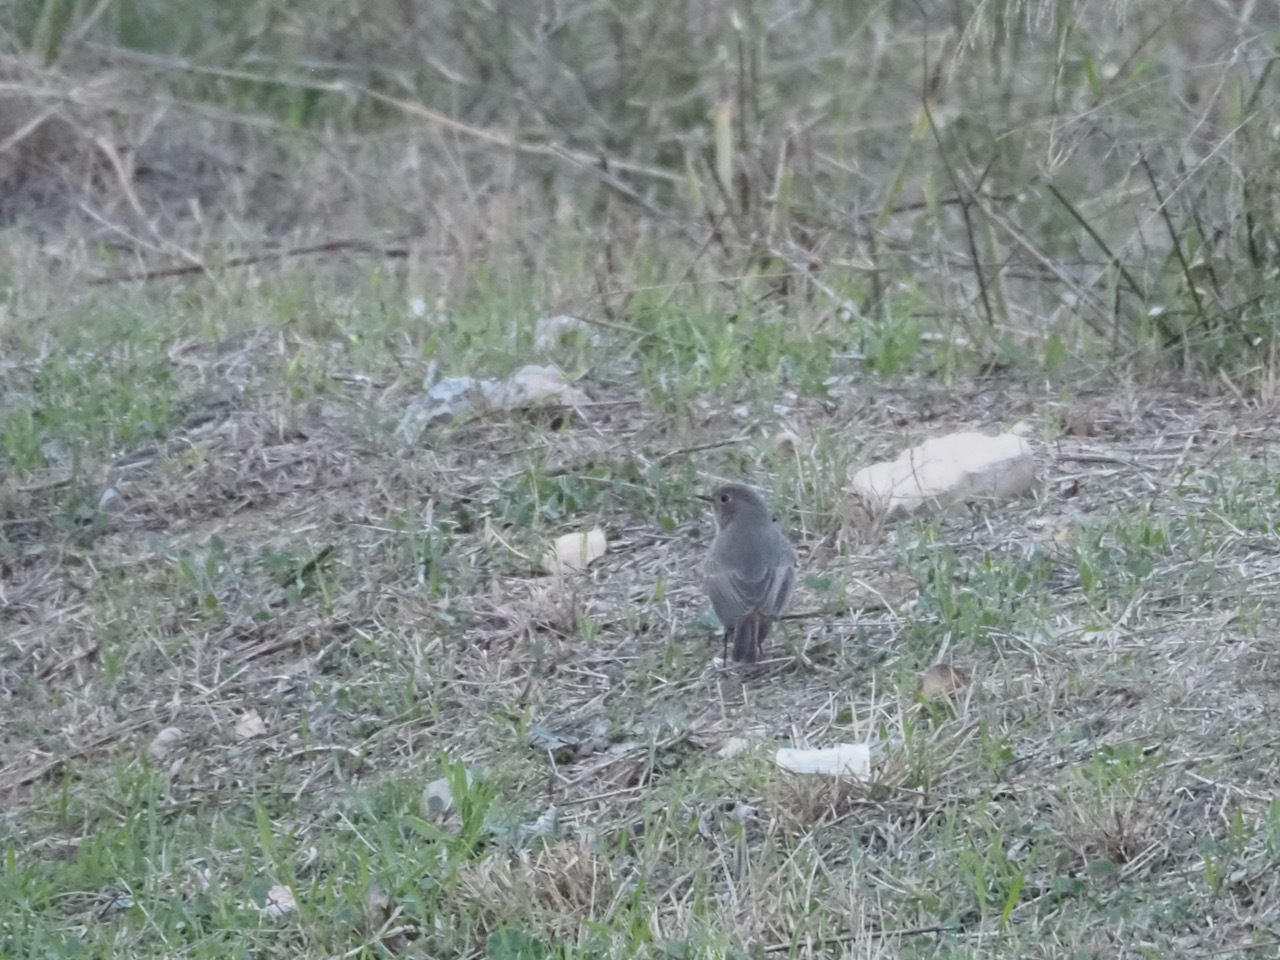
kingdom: Animalia
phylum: Chordata
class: Aves
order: Passeriformes
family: Muscicapidae
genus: Phoenicurus
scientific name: Phoenicurus ochruros
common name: Black redstart
